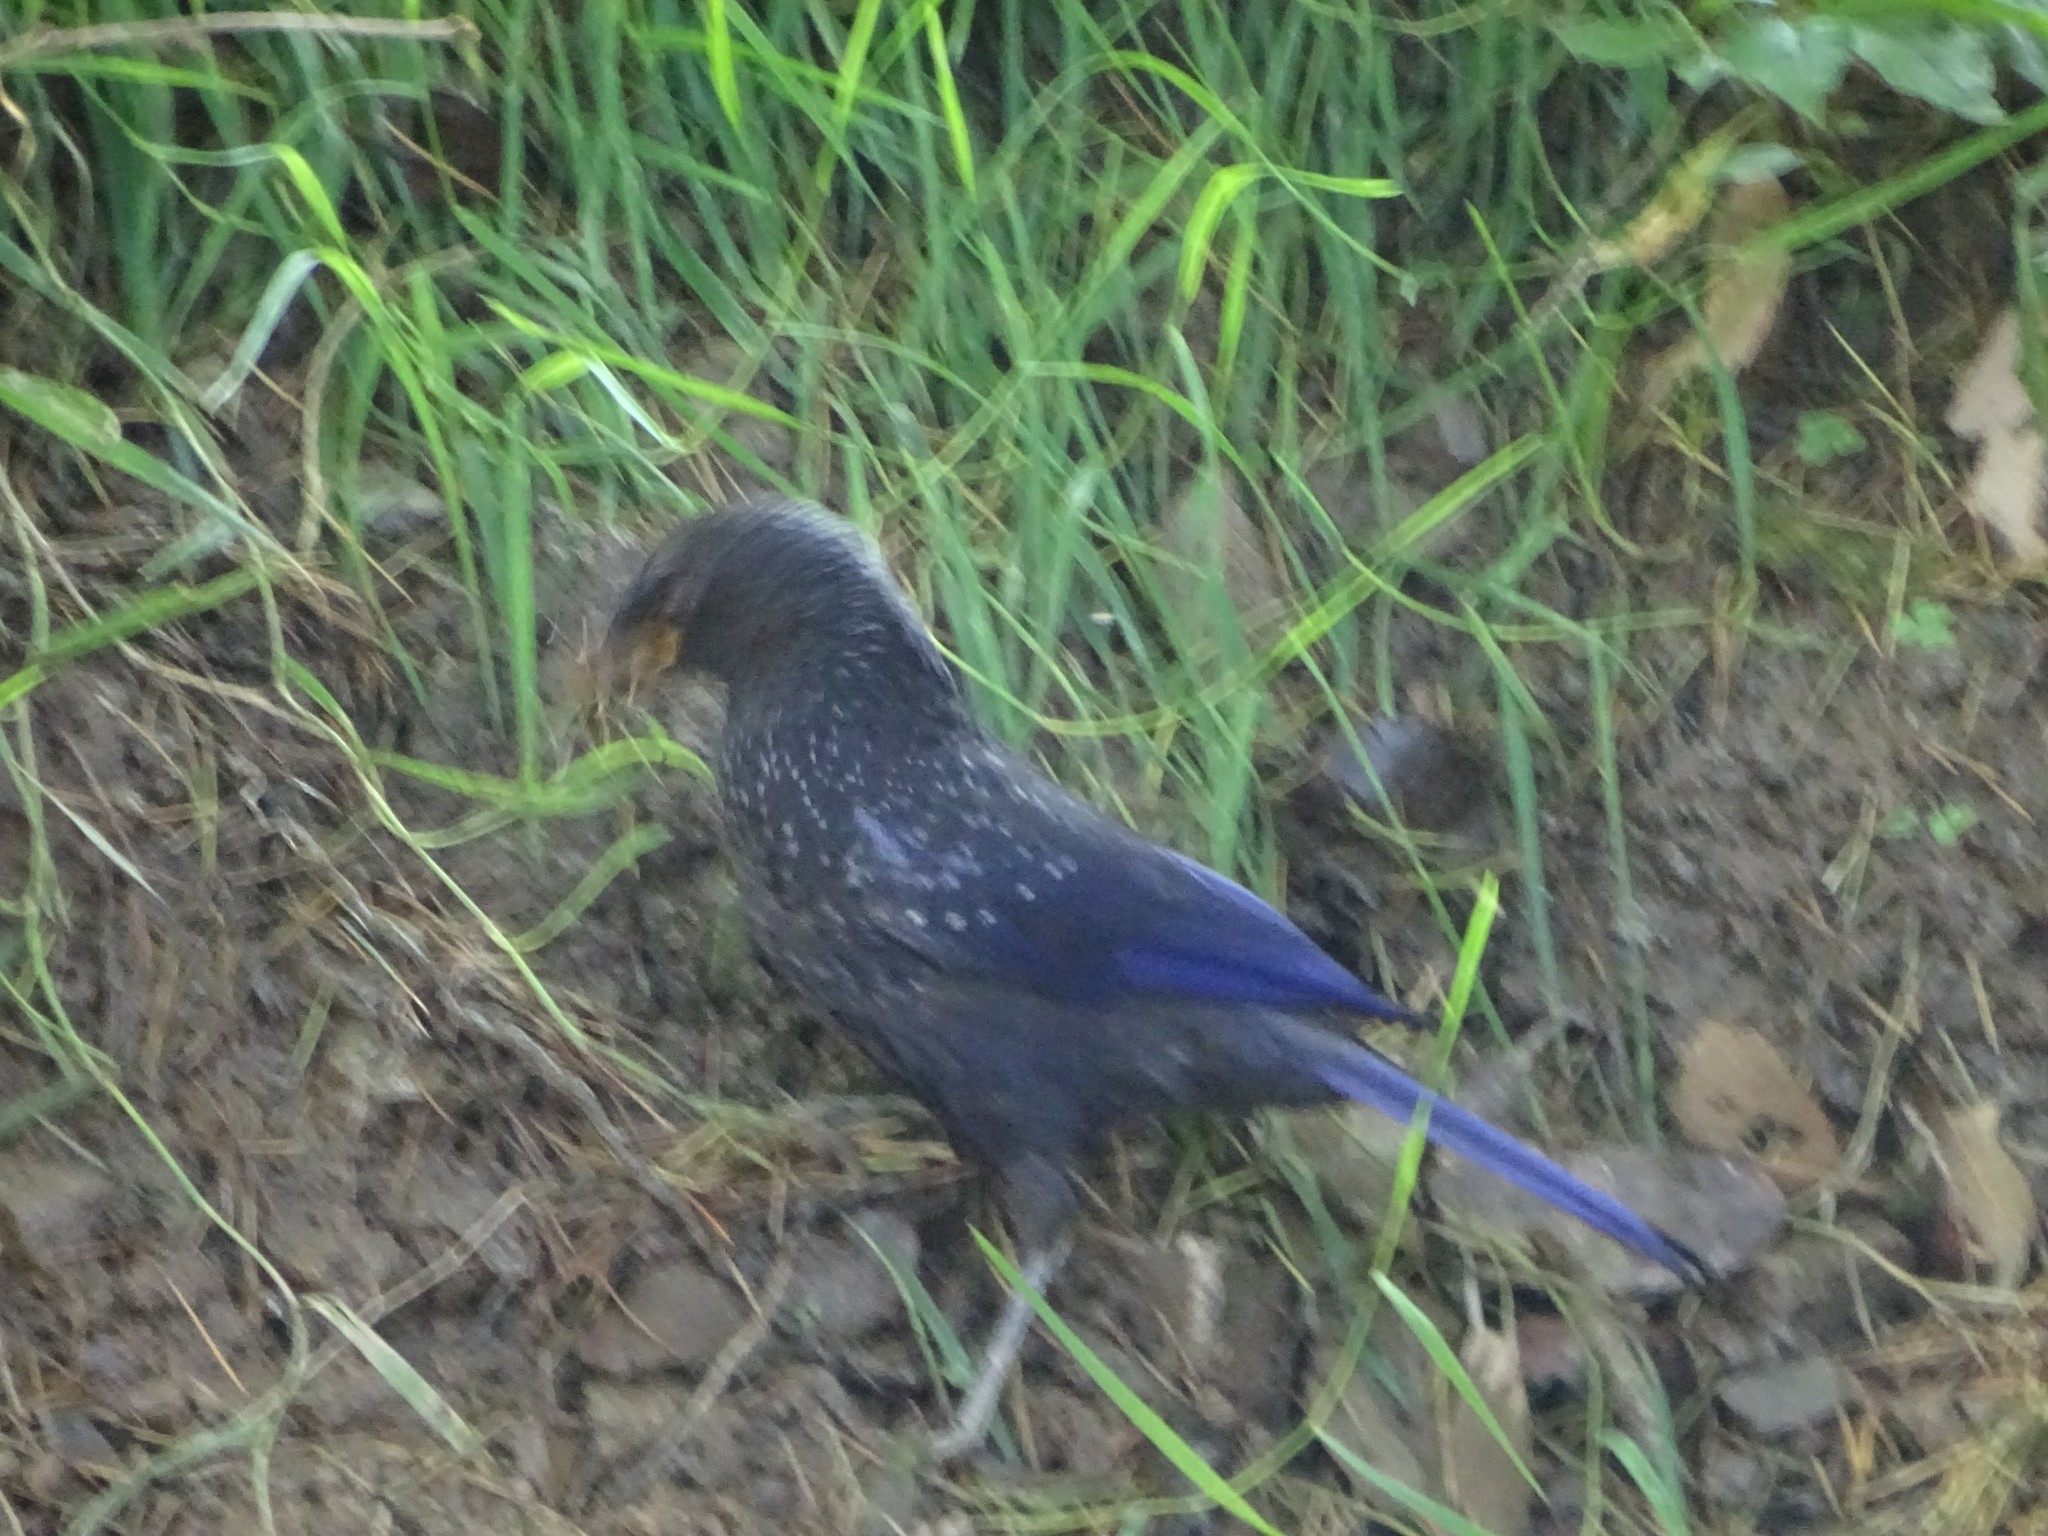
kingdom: Animalia
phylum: Chordata
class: Aves
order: Passeriformes
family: Muscicapidae
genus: Myophonus
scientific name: Myophonus caeruleus
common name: Blue whistling-thrush
